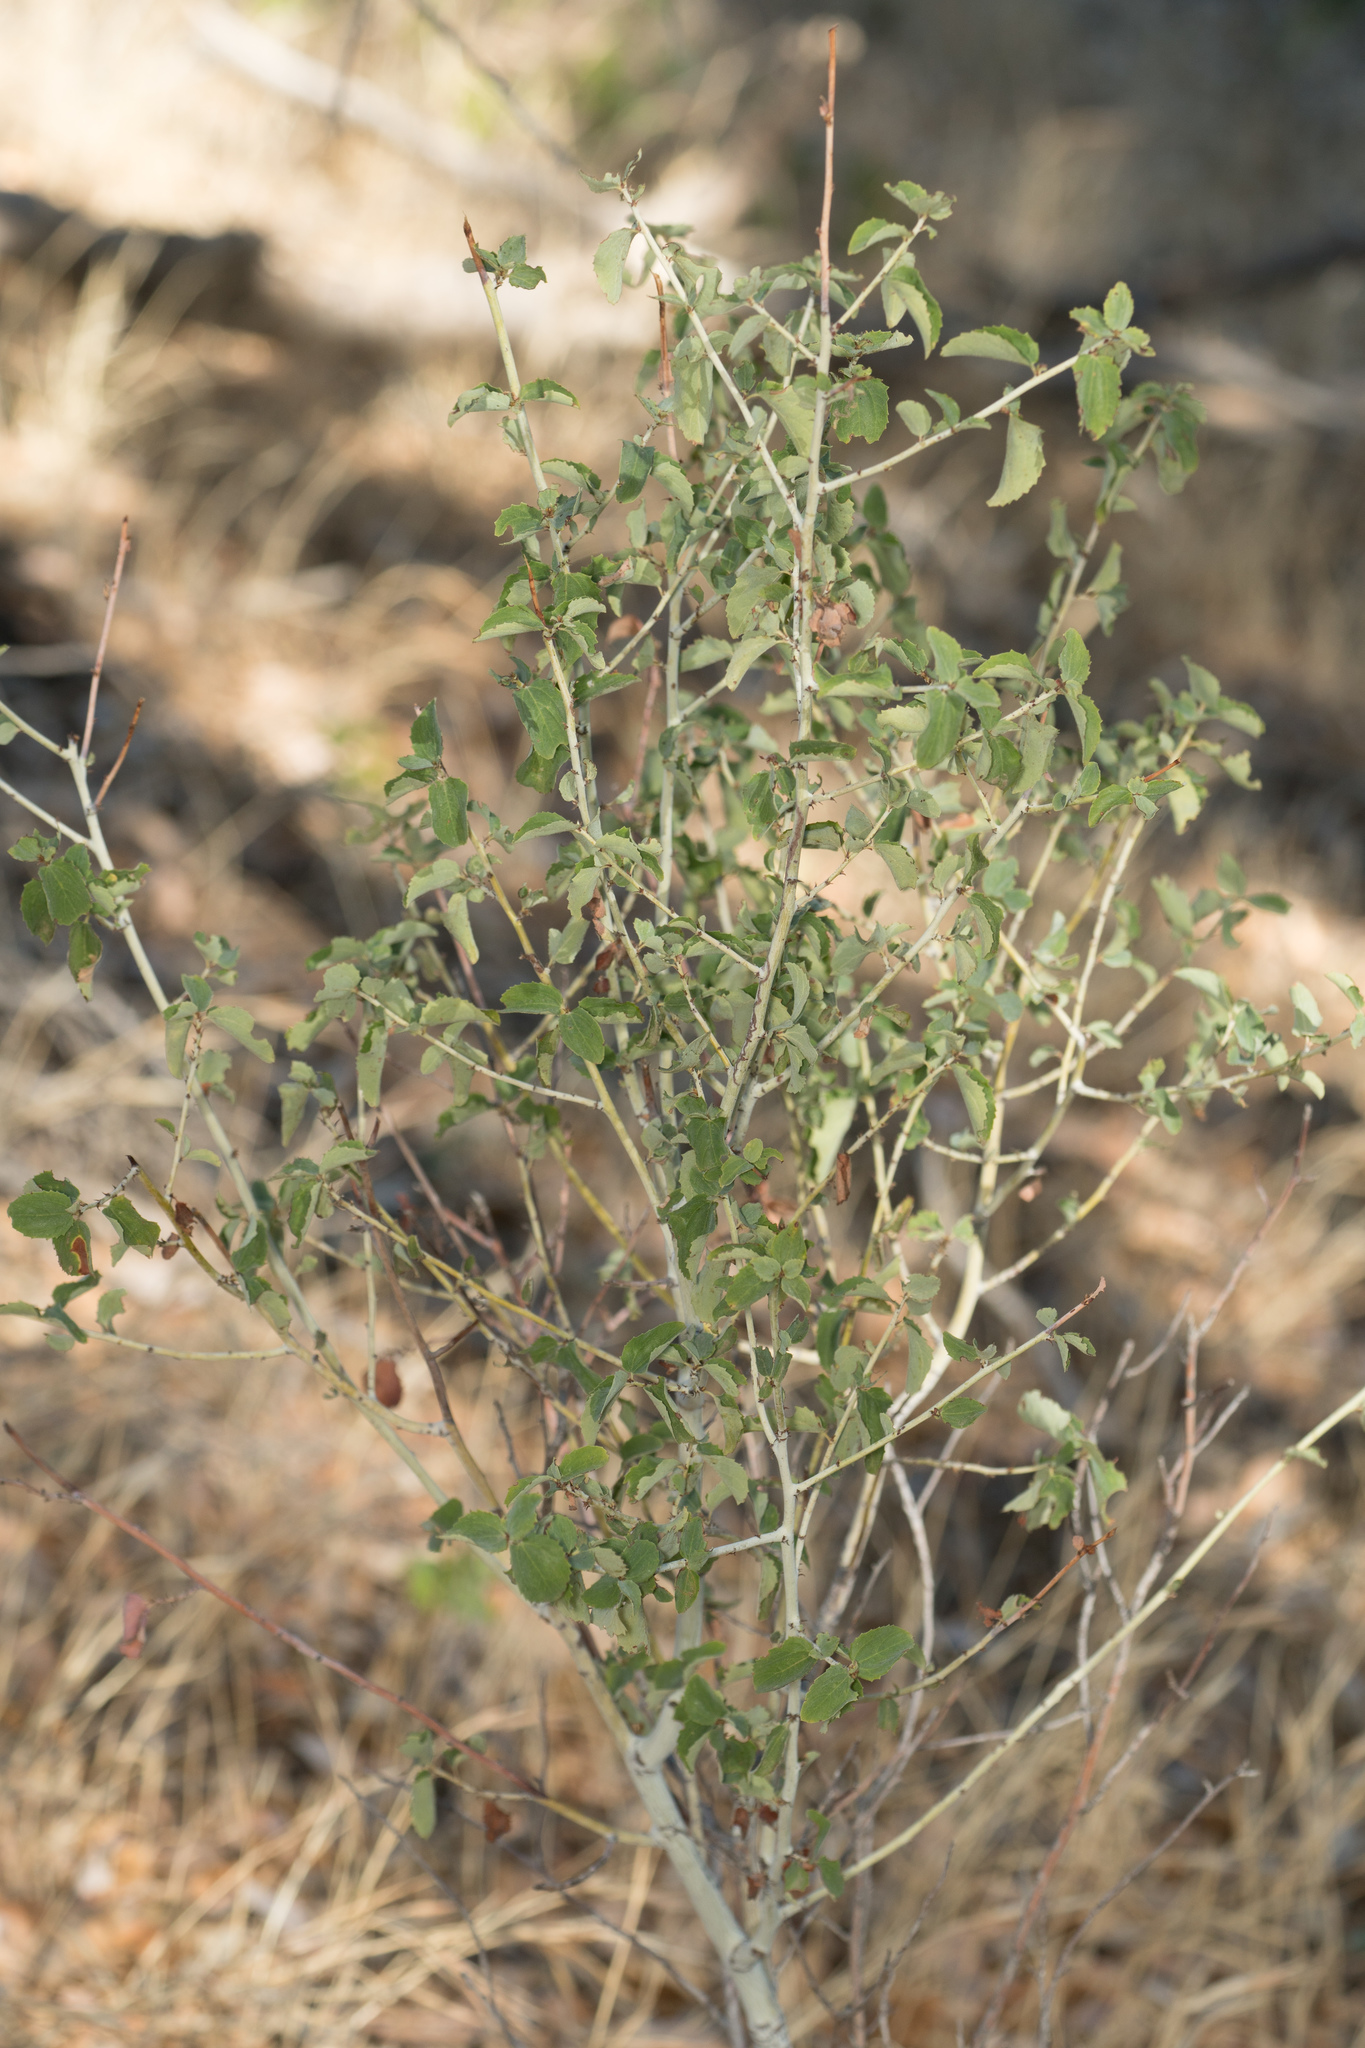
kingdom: Plantae
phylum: Tracheophyta
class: Magnoliopsida
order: Rosales
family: Rhamnaceae
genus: Ceanothus
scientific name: Ceanothus leucodermis
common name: Chaparral whitethorn
